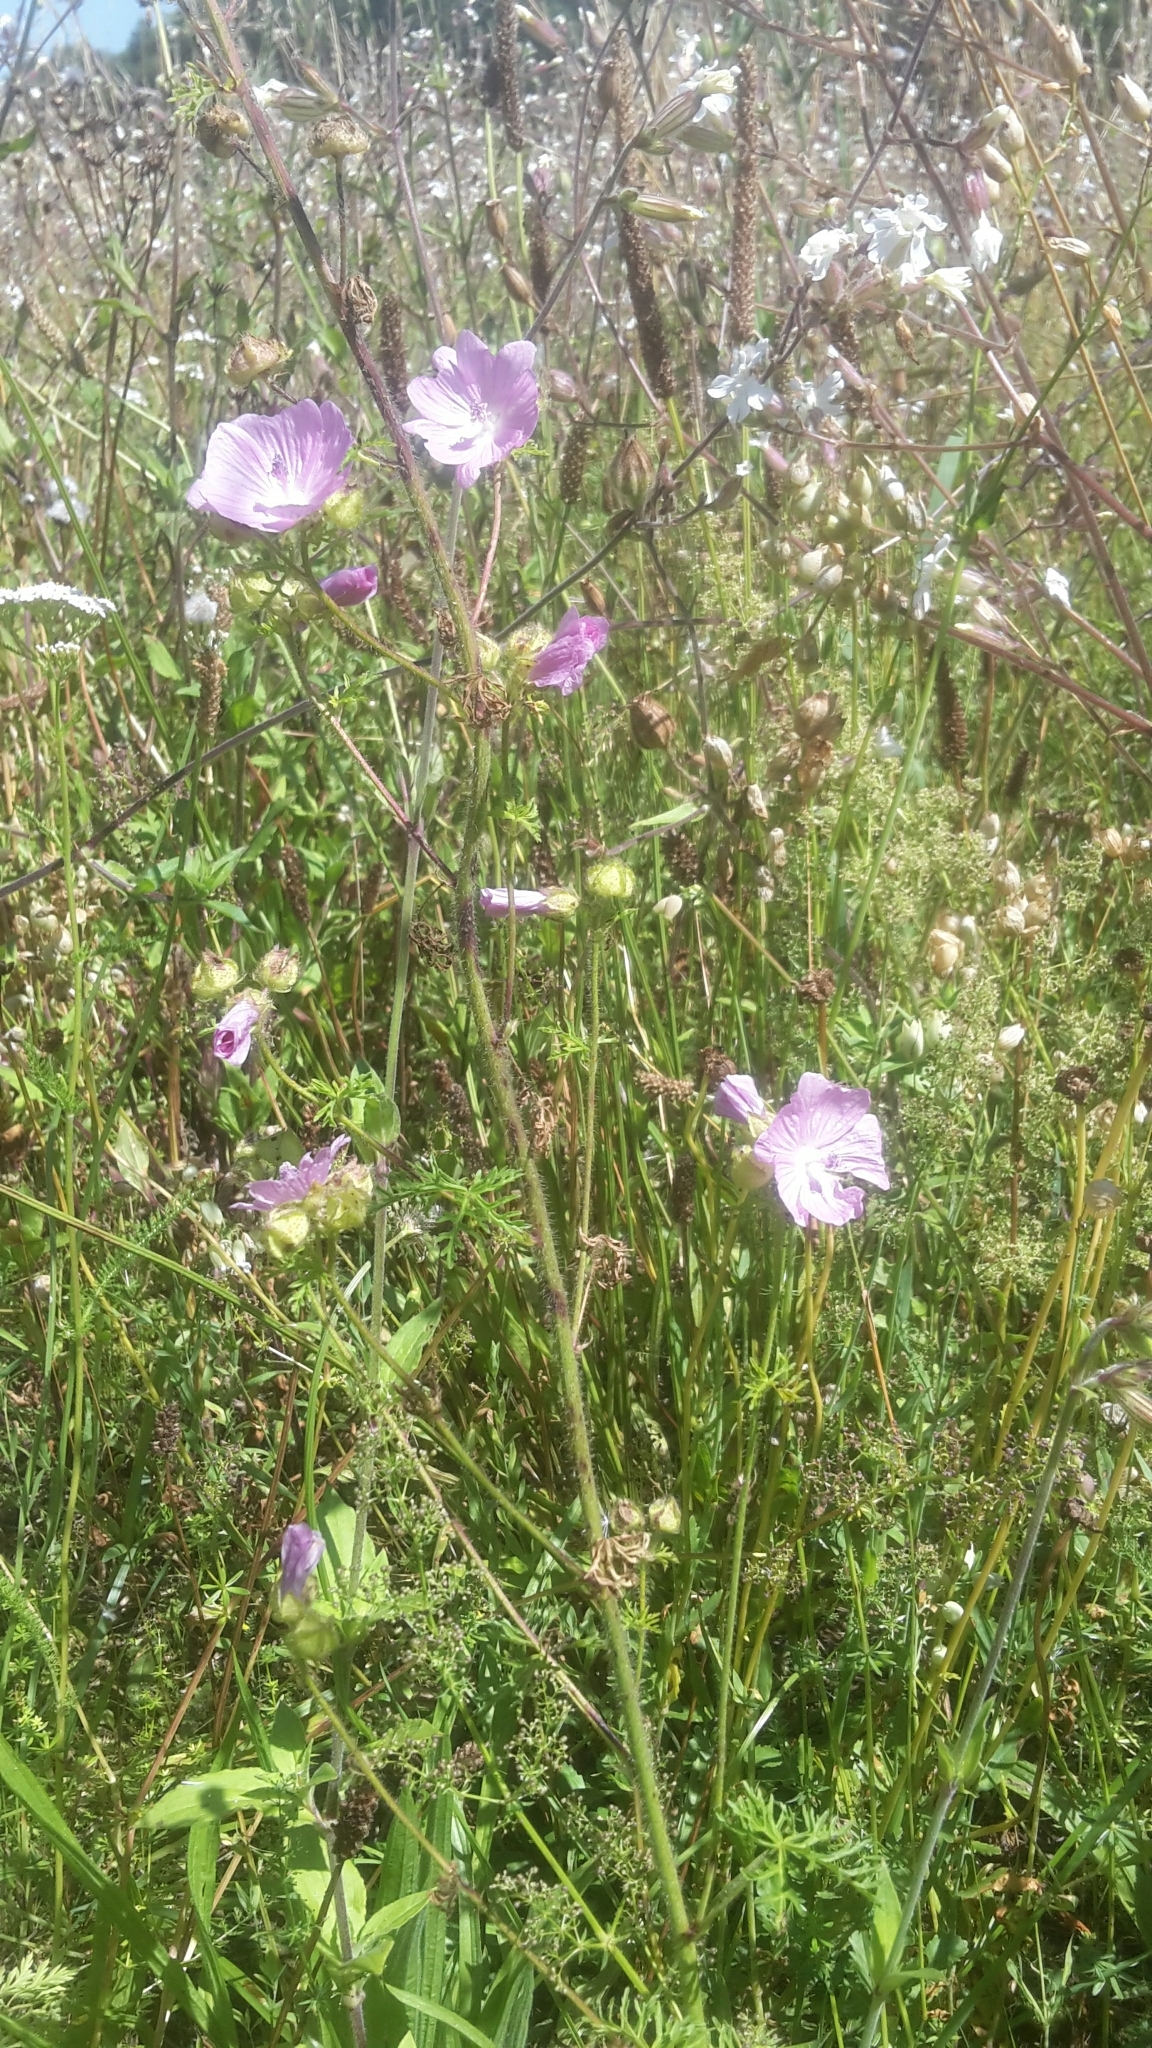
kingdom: Plantae
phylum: Tracheophyta
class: Magnoliopsida
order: Malvales
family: Malvaceae
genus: Malva
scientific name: Malva moschata
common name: Musk mallow
